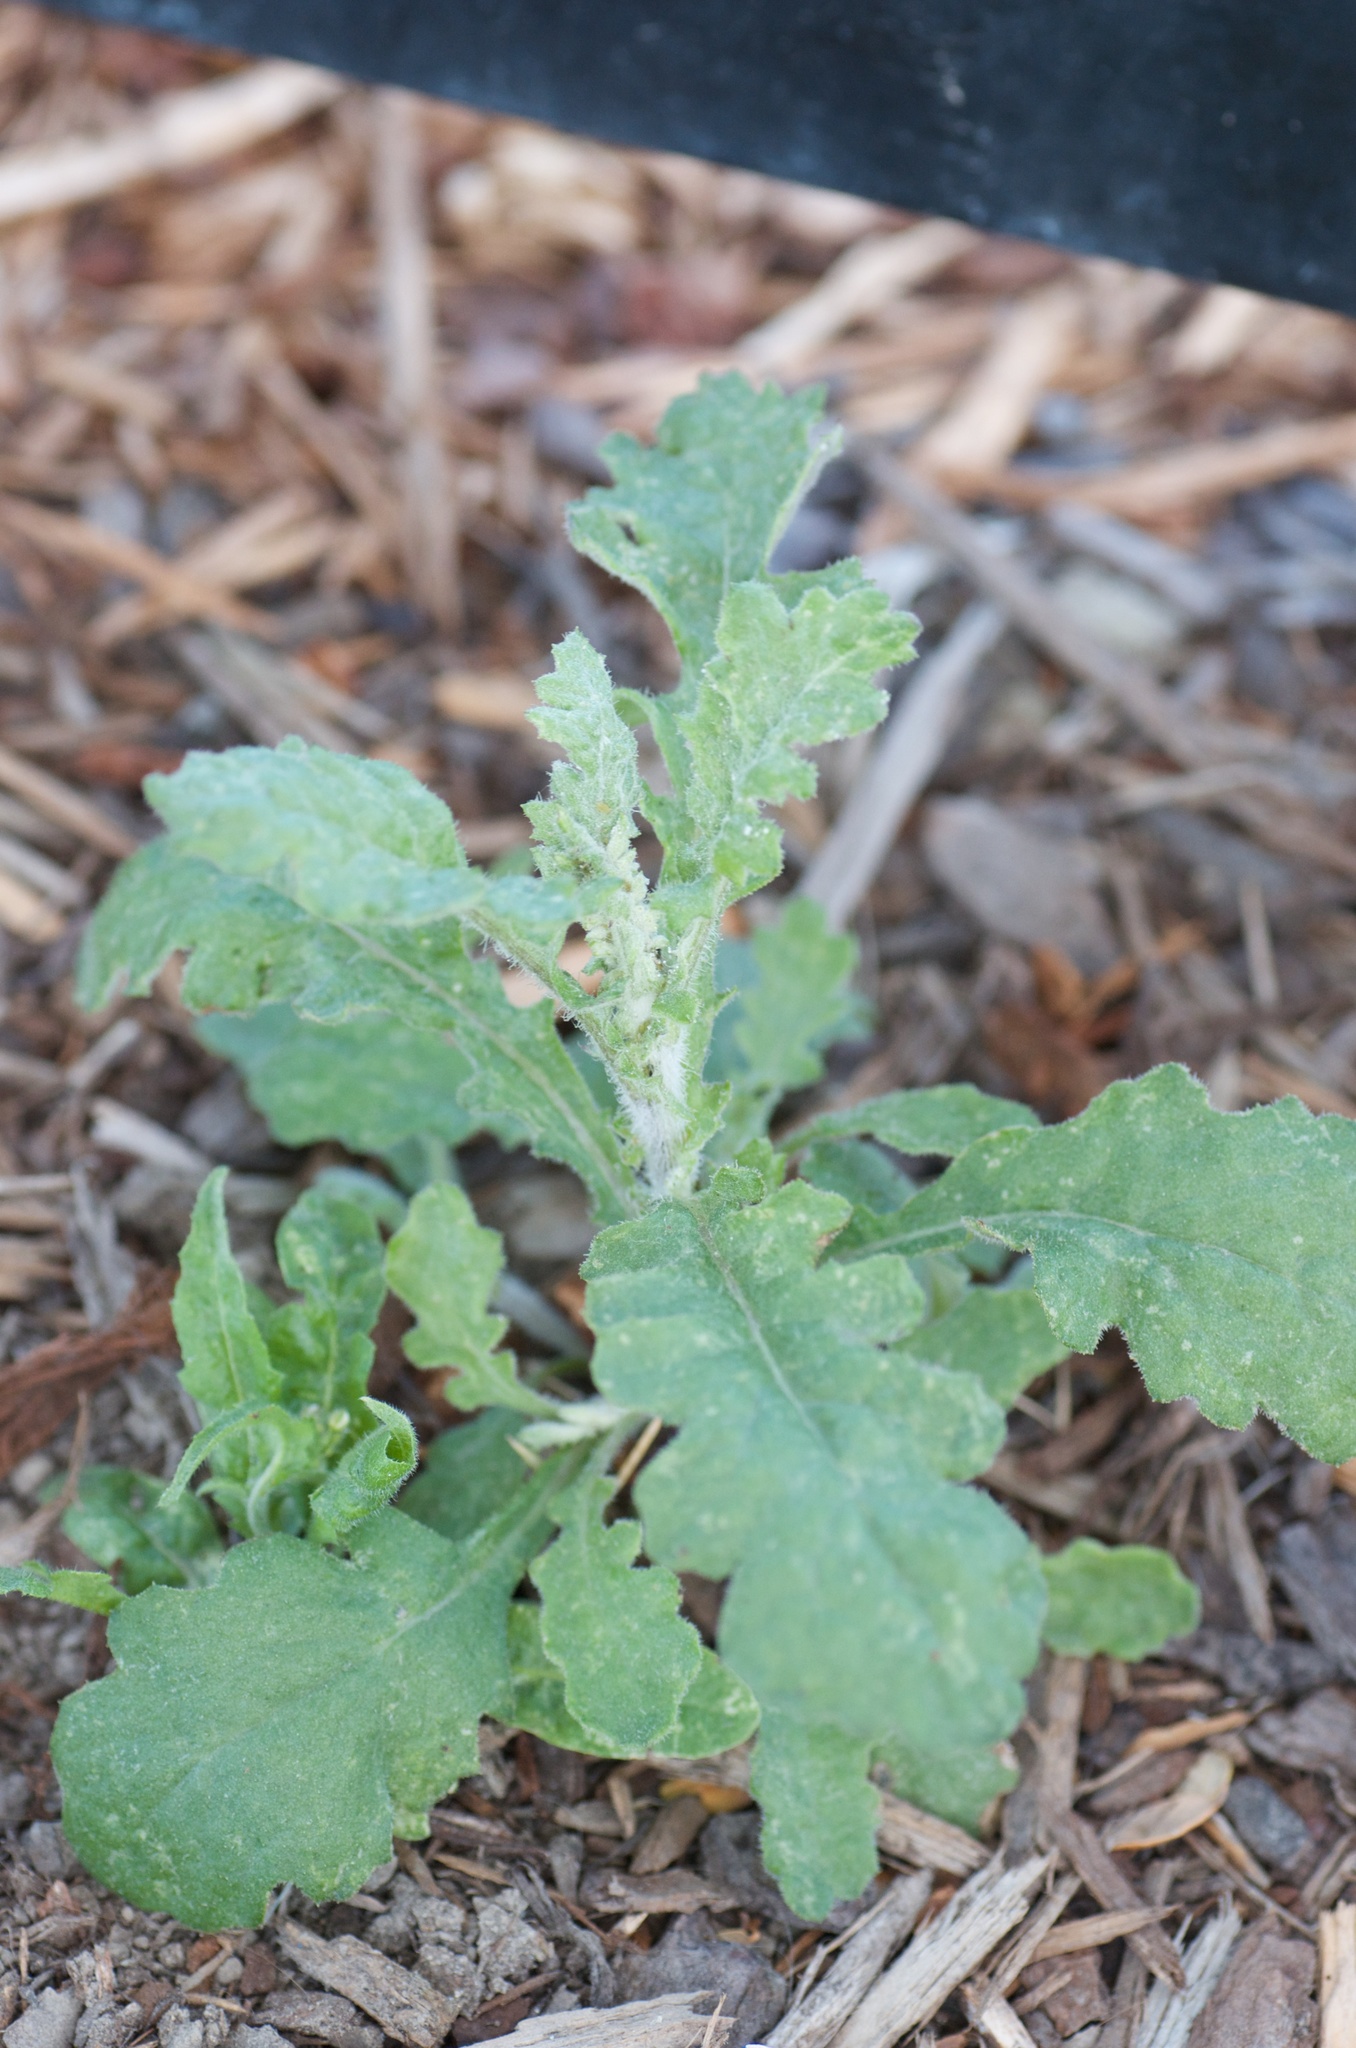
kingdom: Plantae
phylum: Tracheophyta
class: Magnoliopsida
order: Asterales
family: Asteraceae
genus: Senecio
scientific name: Senecio glomeratus
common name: Cutleaf burnweed
